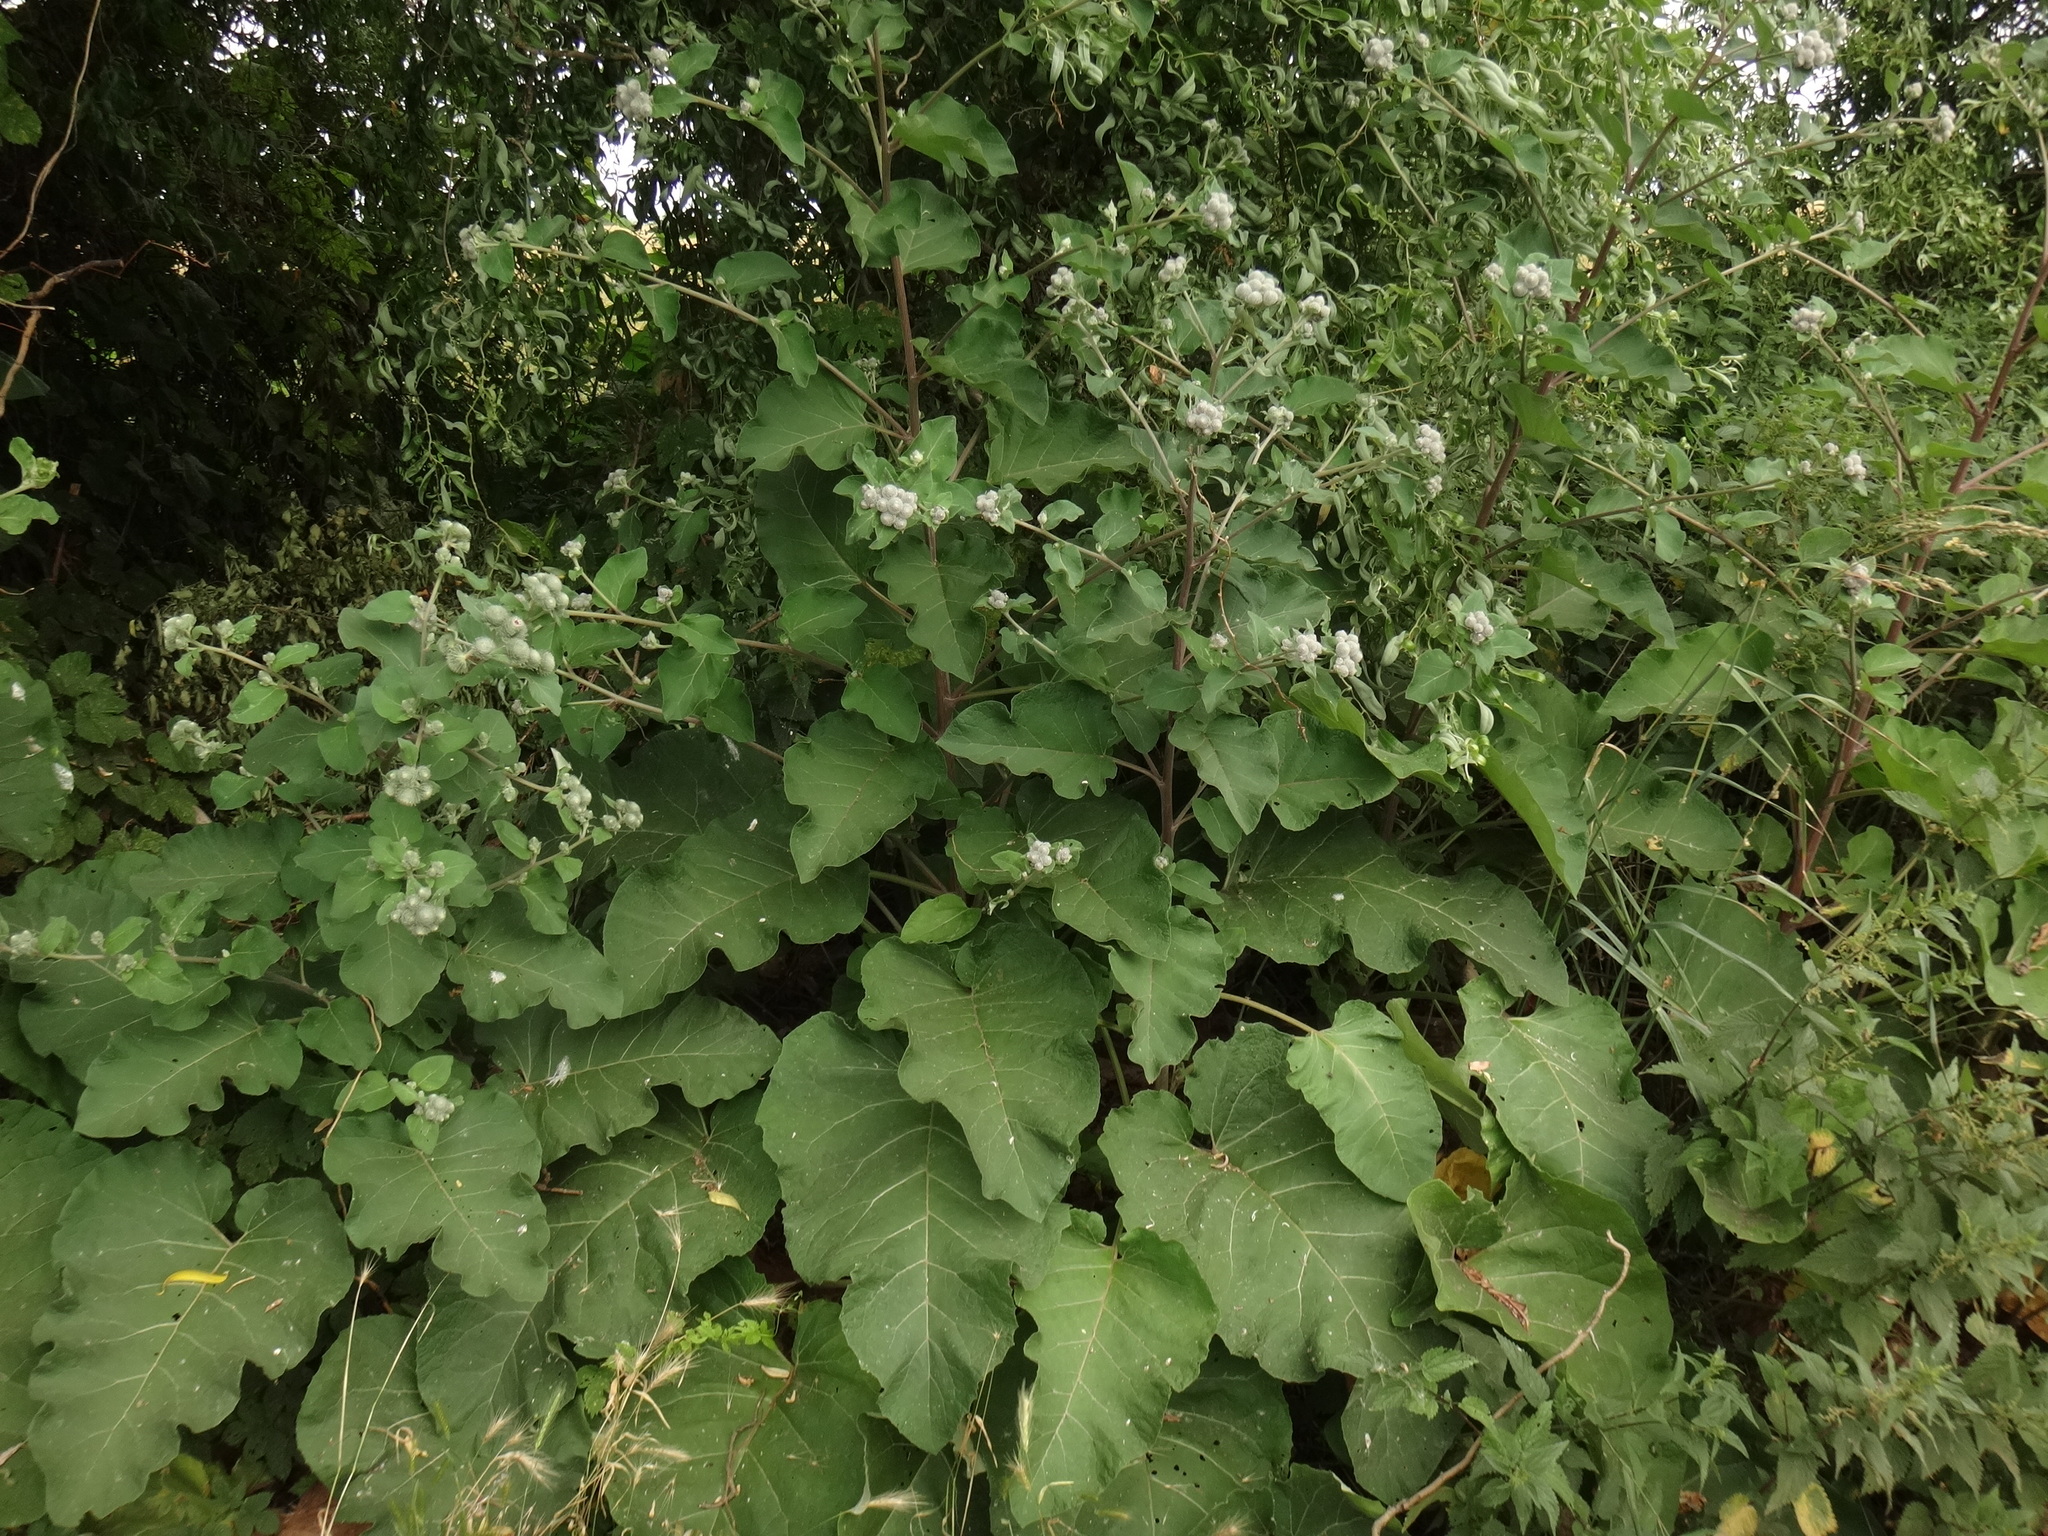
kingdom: Plantae
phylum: Tracheophyta
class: Magnoliopsida
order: Asterales
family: Asteraceae
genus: Arctium
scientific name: Arctium tomentosum
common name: Woolly burdock
